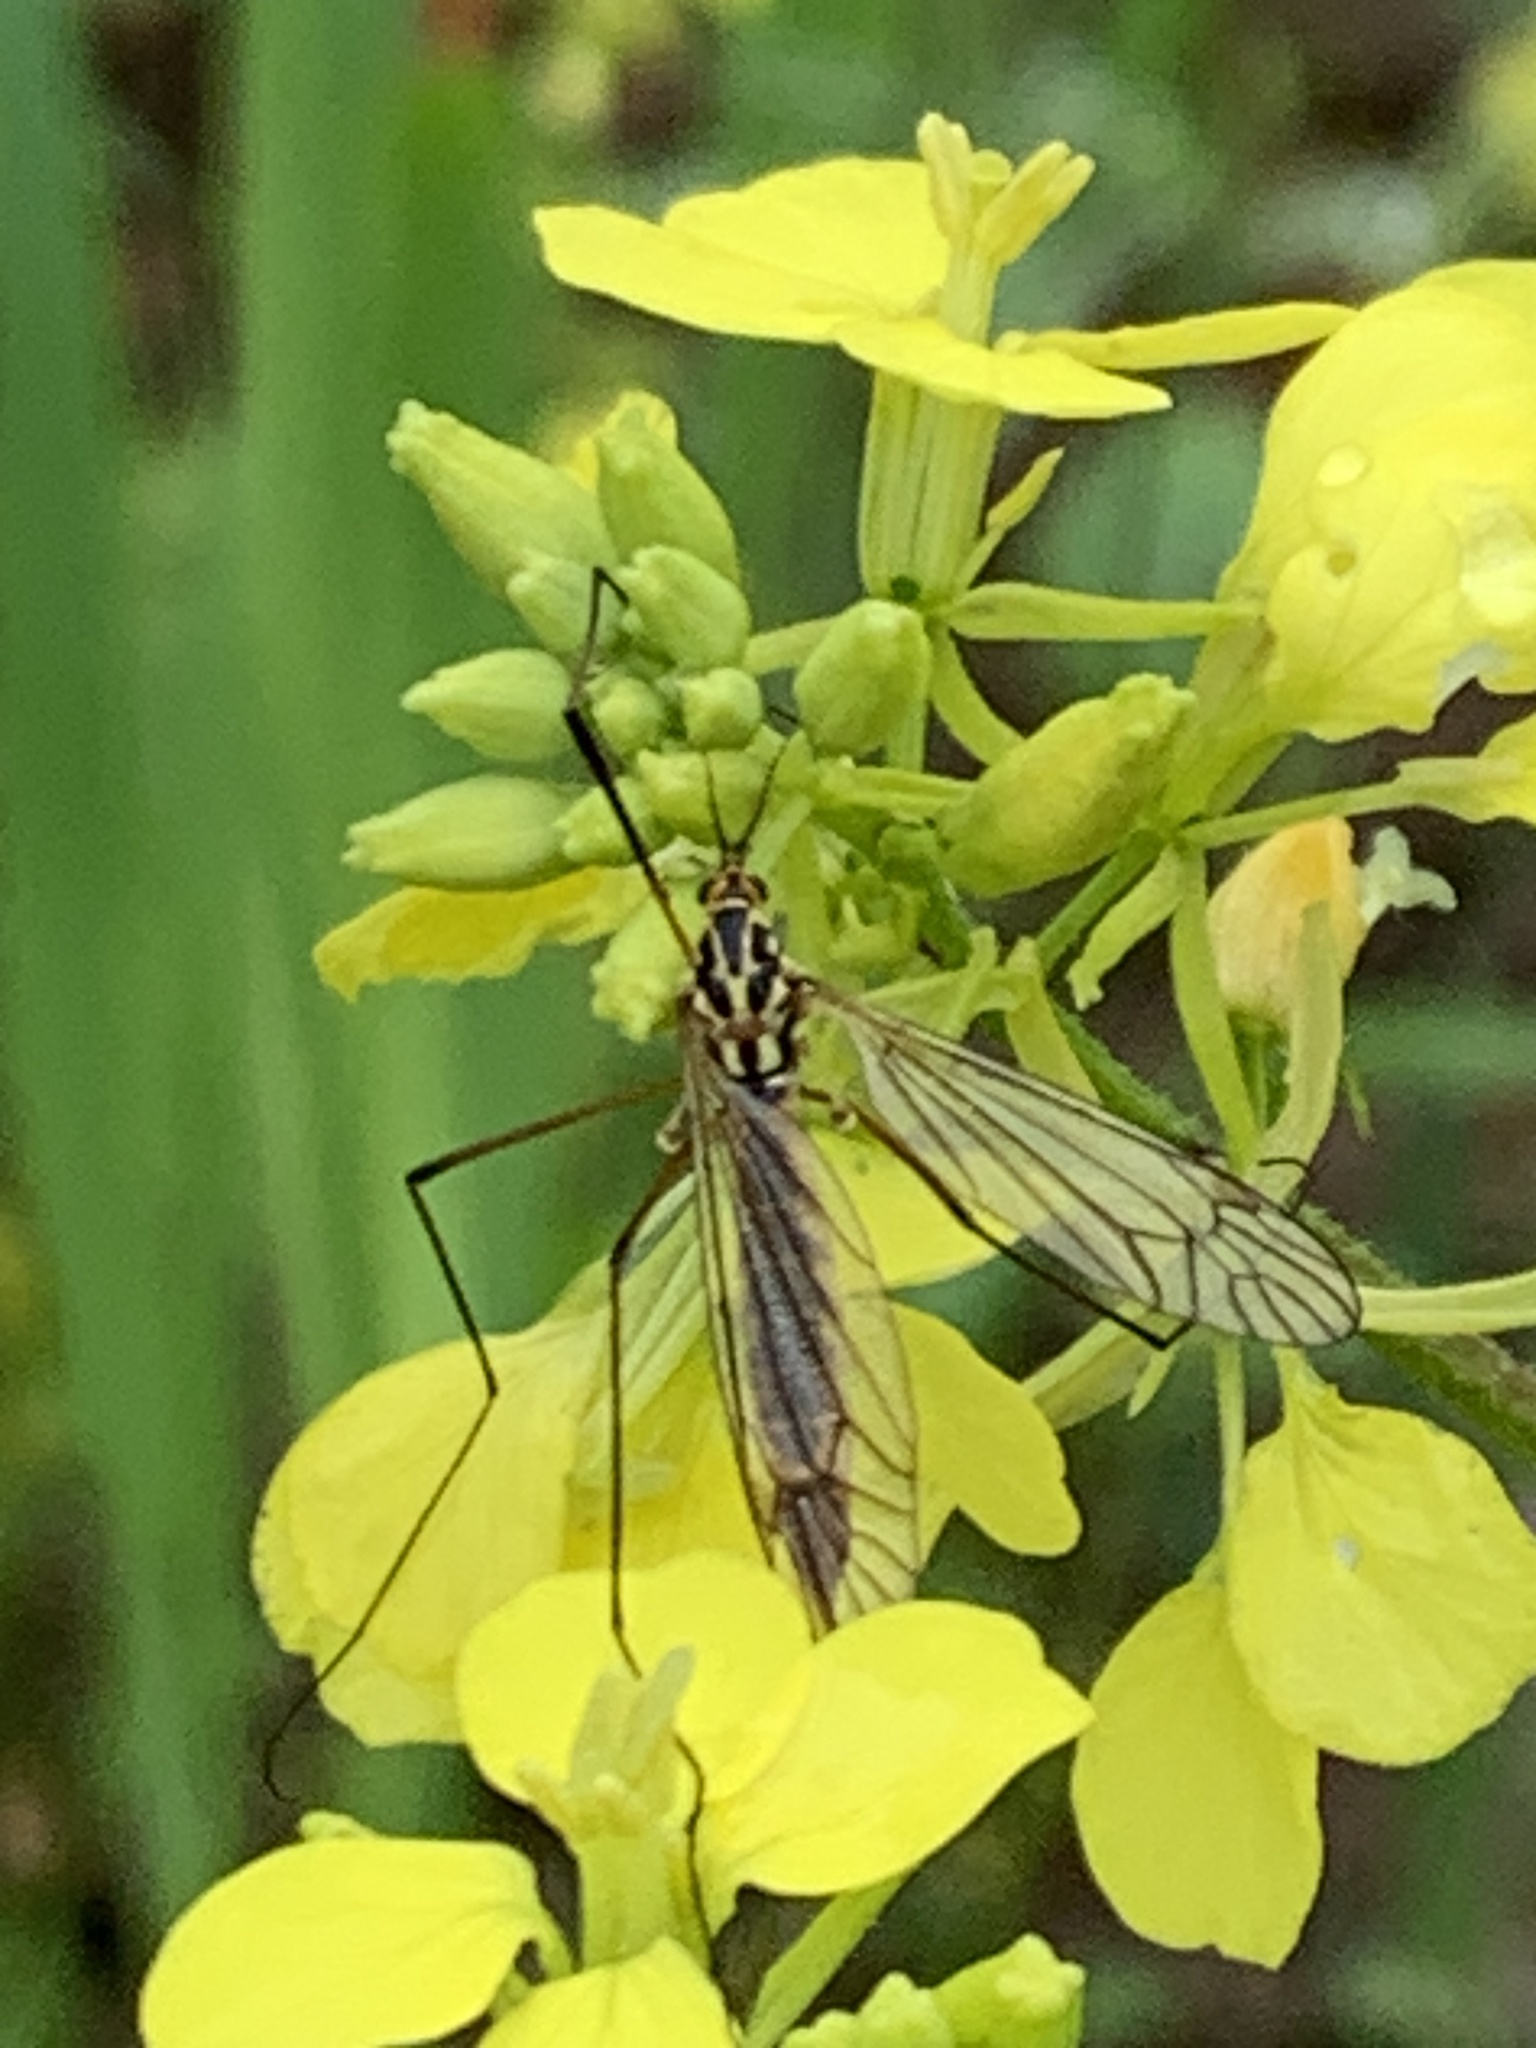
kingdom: Animalia
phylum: Arthropoda
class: Insecta
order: Diptera
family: Tipulidae
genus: Nephrotoma
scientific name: Nephrotoma appendiculata
